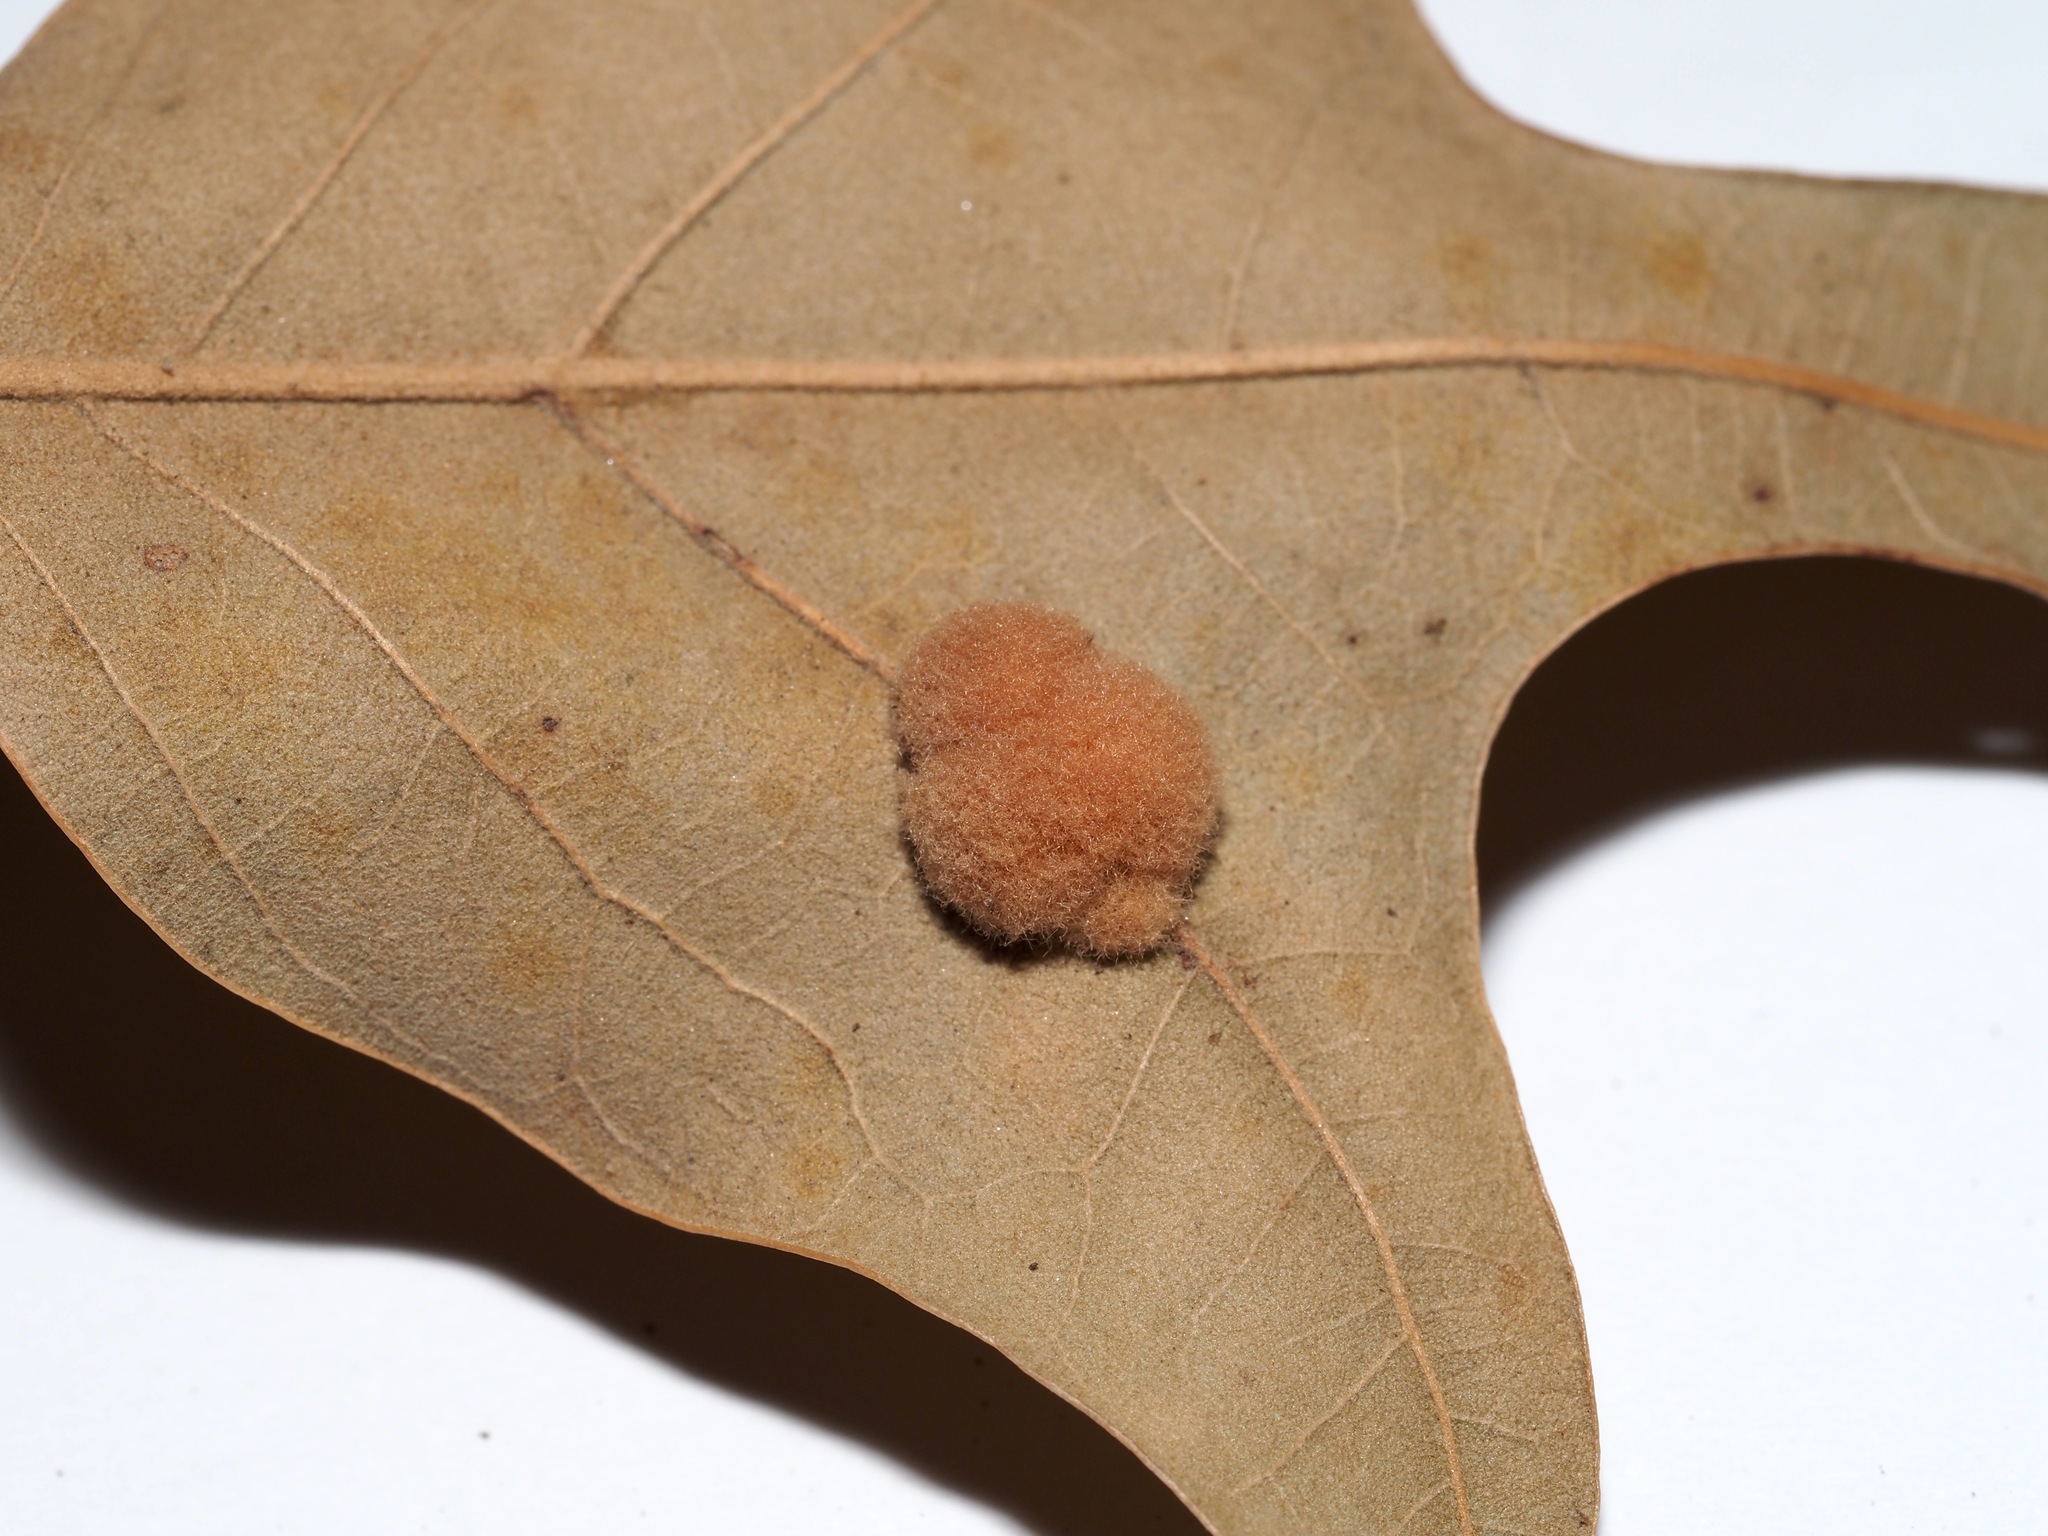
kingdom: Animalia
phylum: Arthropoda
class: Insecta
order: Hymenoptera
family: Cynipidae
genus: Callirhytis
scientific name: Callirhytis
